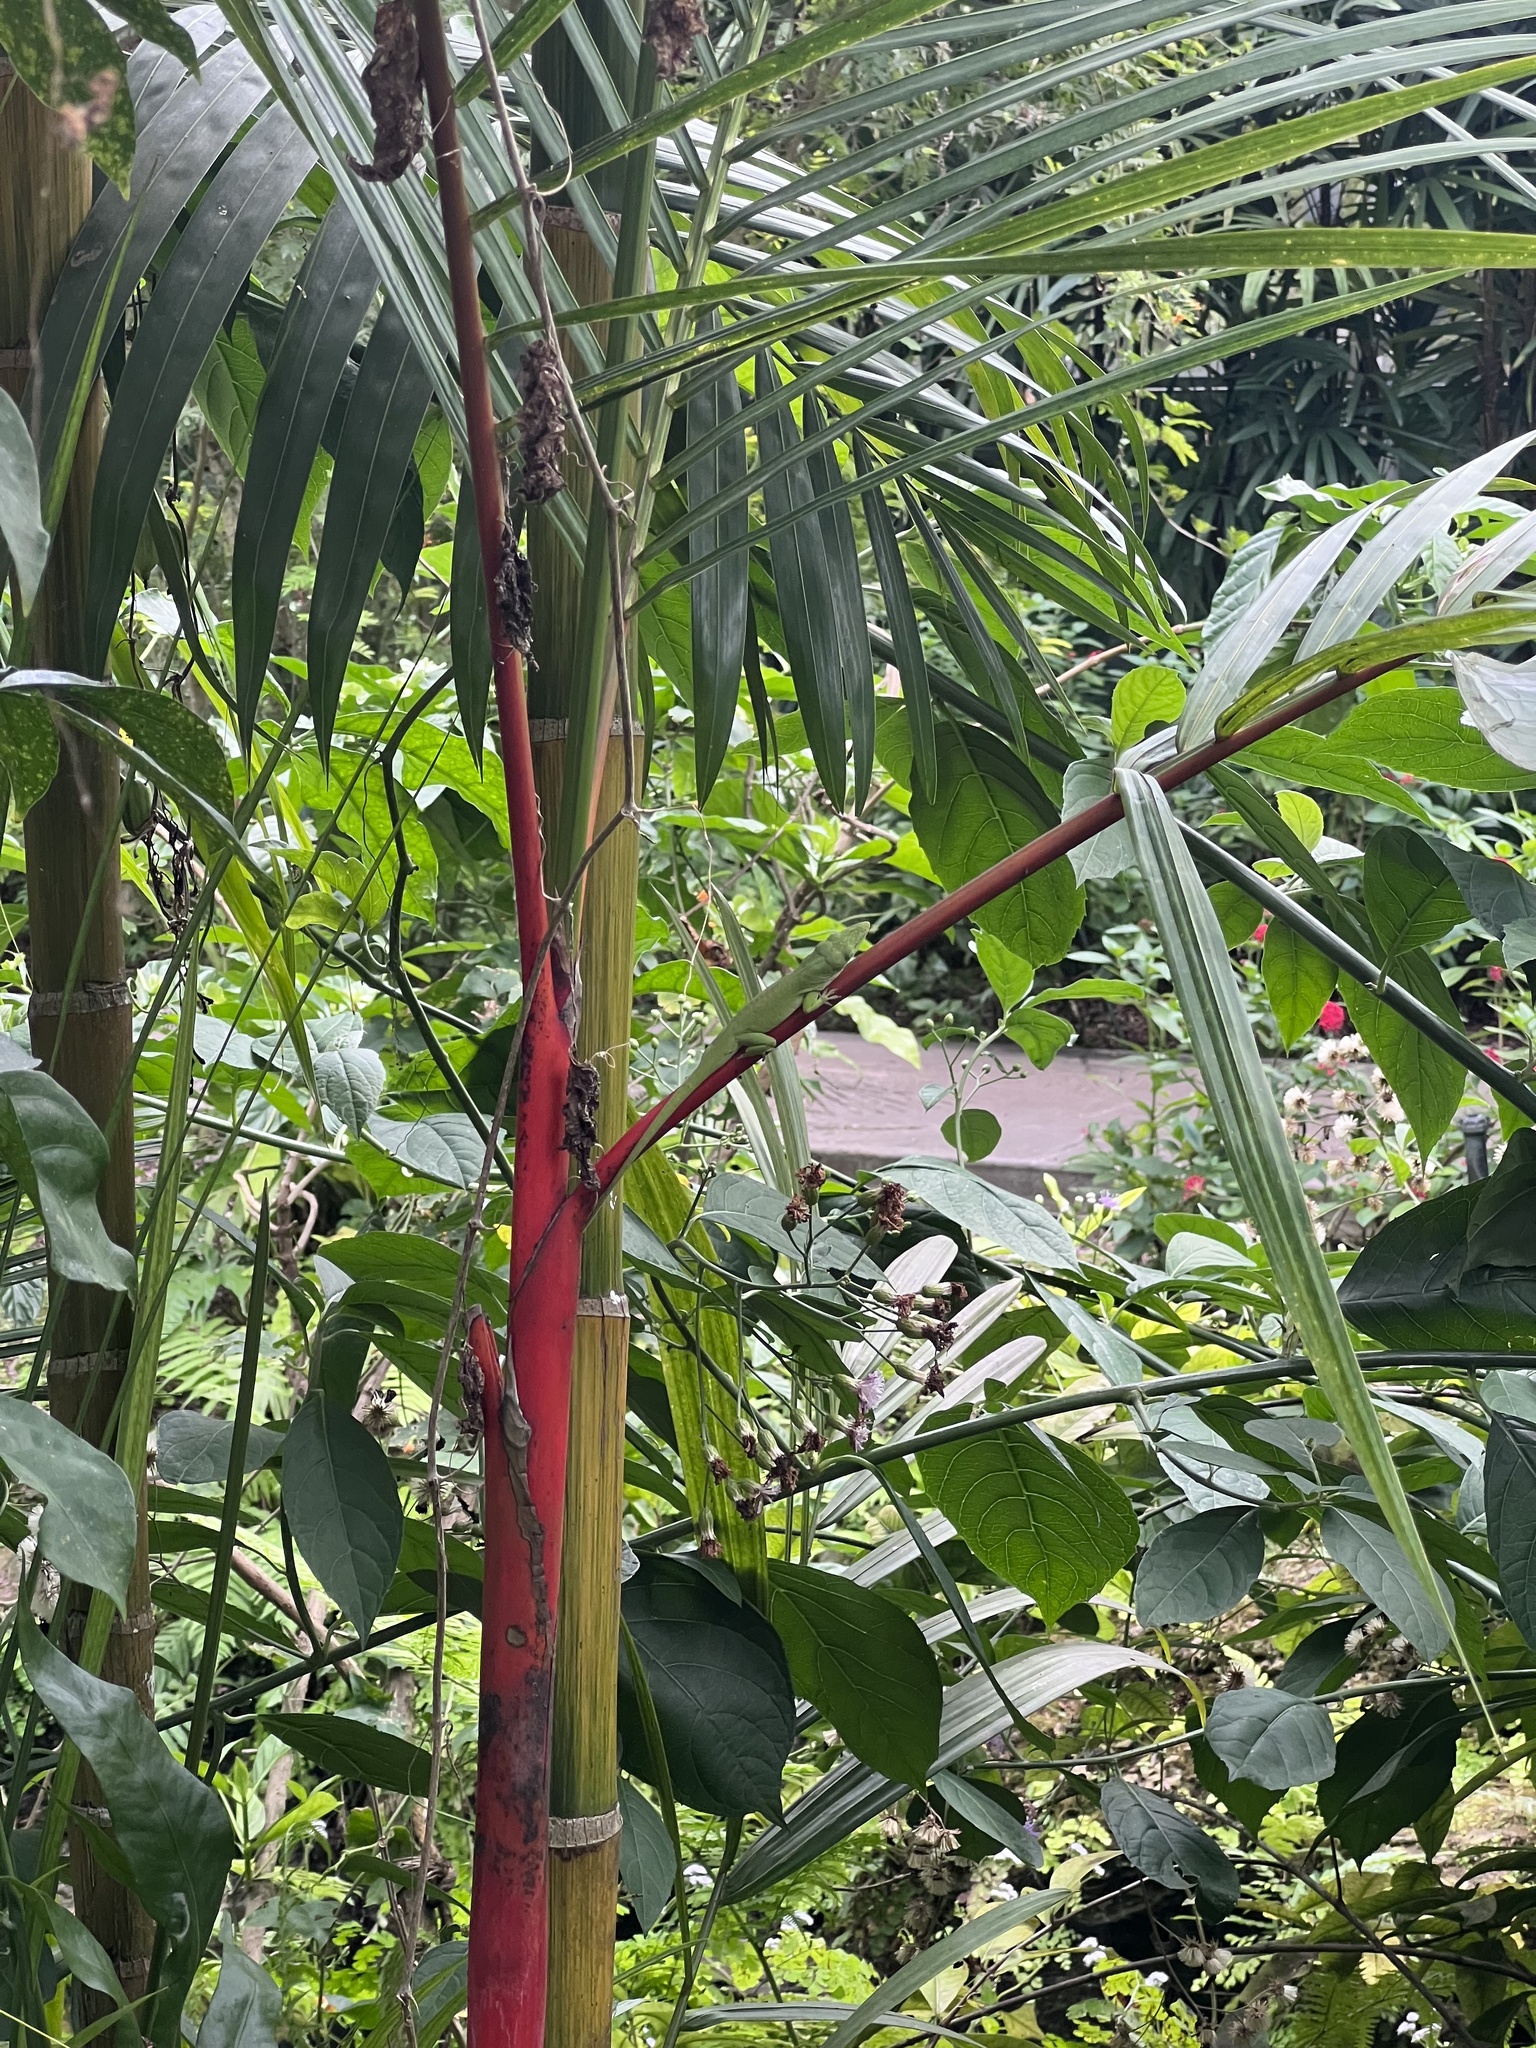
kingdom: Animalia
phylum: Chordata
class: Squamata
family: Dactyloidae
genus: Anolis
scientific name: Anolis carolinensis
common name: Green anole
